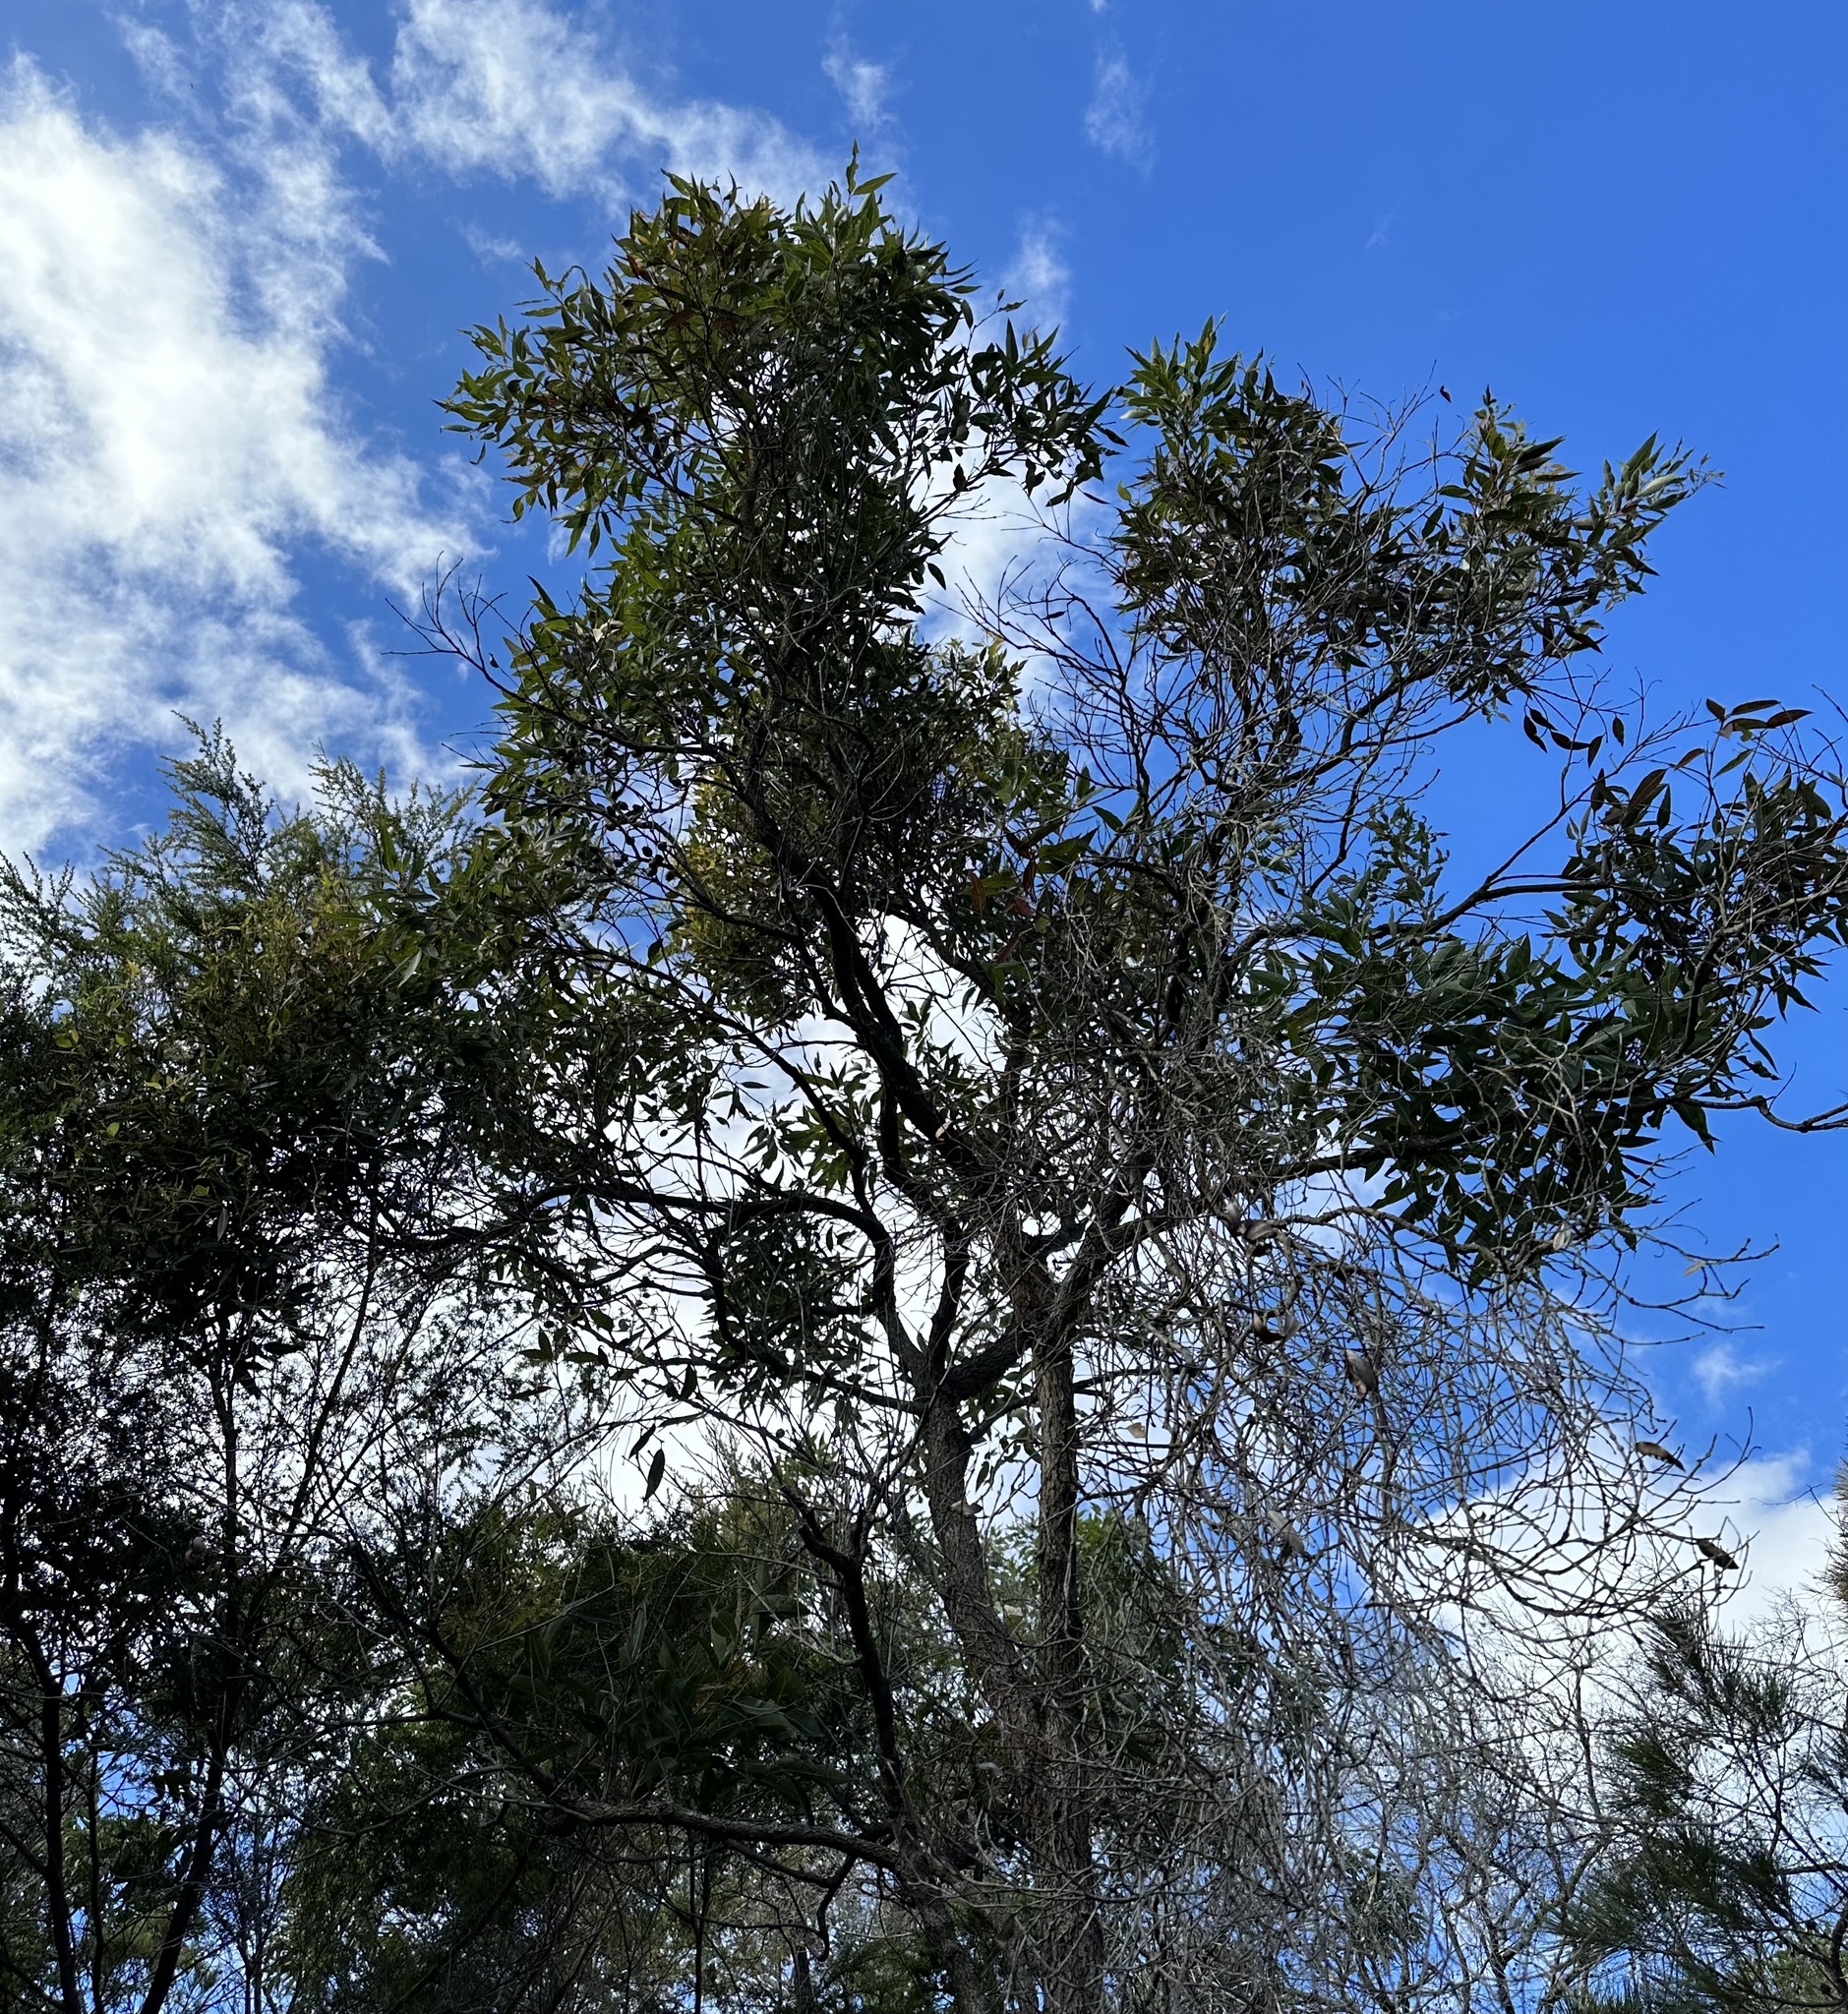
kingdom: Plantae
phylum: Tracheophyta
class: Magnoliopsida
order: Myrtales
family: Myrtaceae
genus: Corymbia
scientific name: Corymbia intermedia
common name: Pink-bloodwood
